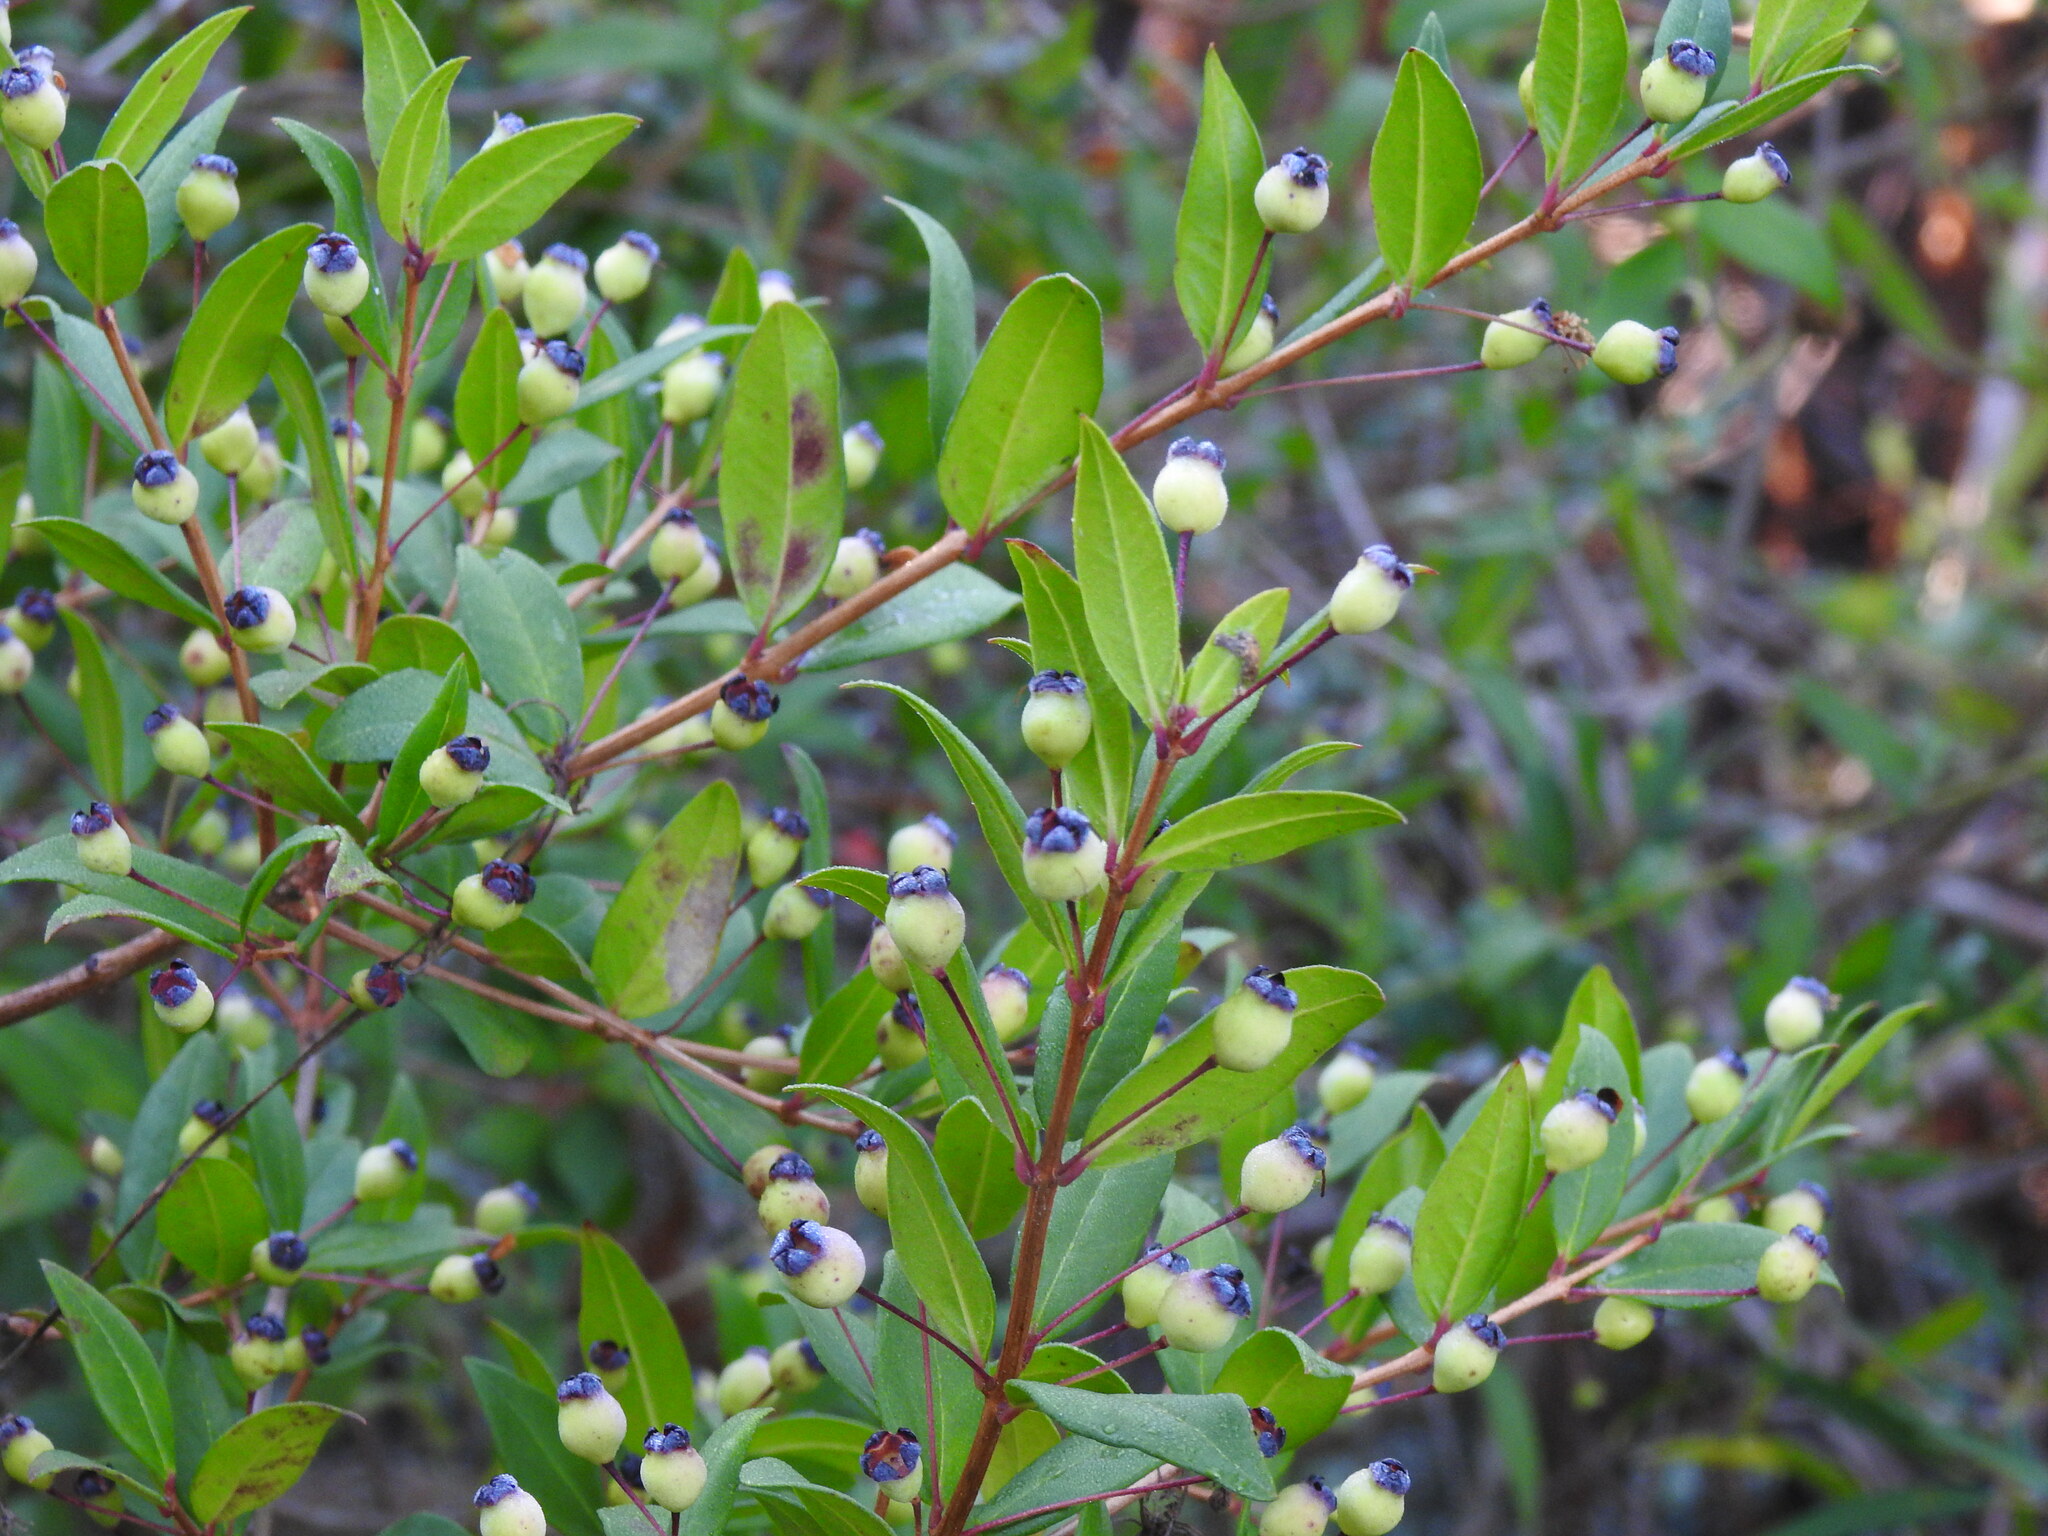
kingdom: Plantae
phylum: Tracheophyta
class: Magnoliopsida
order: Myrtales
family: Myrtaceae
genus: Myrtus
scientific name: Myrtus communis
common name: Myrtle
